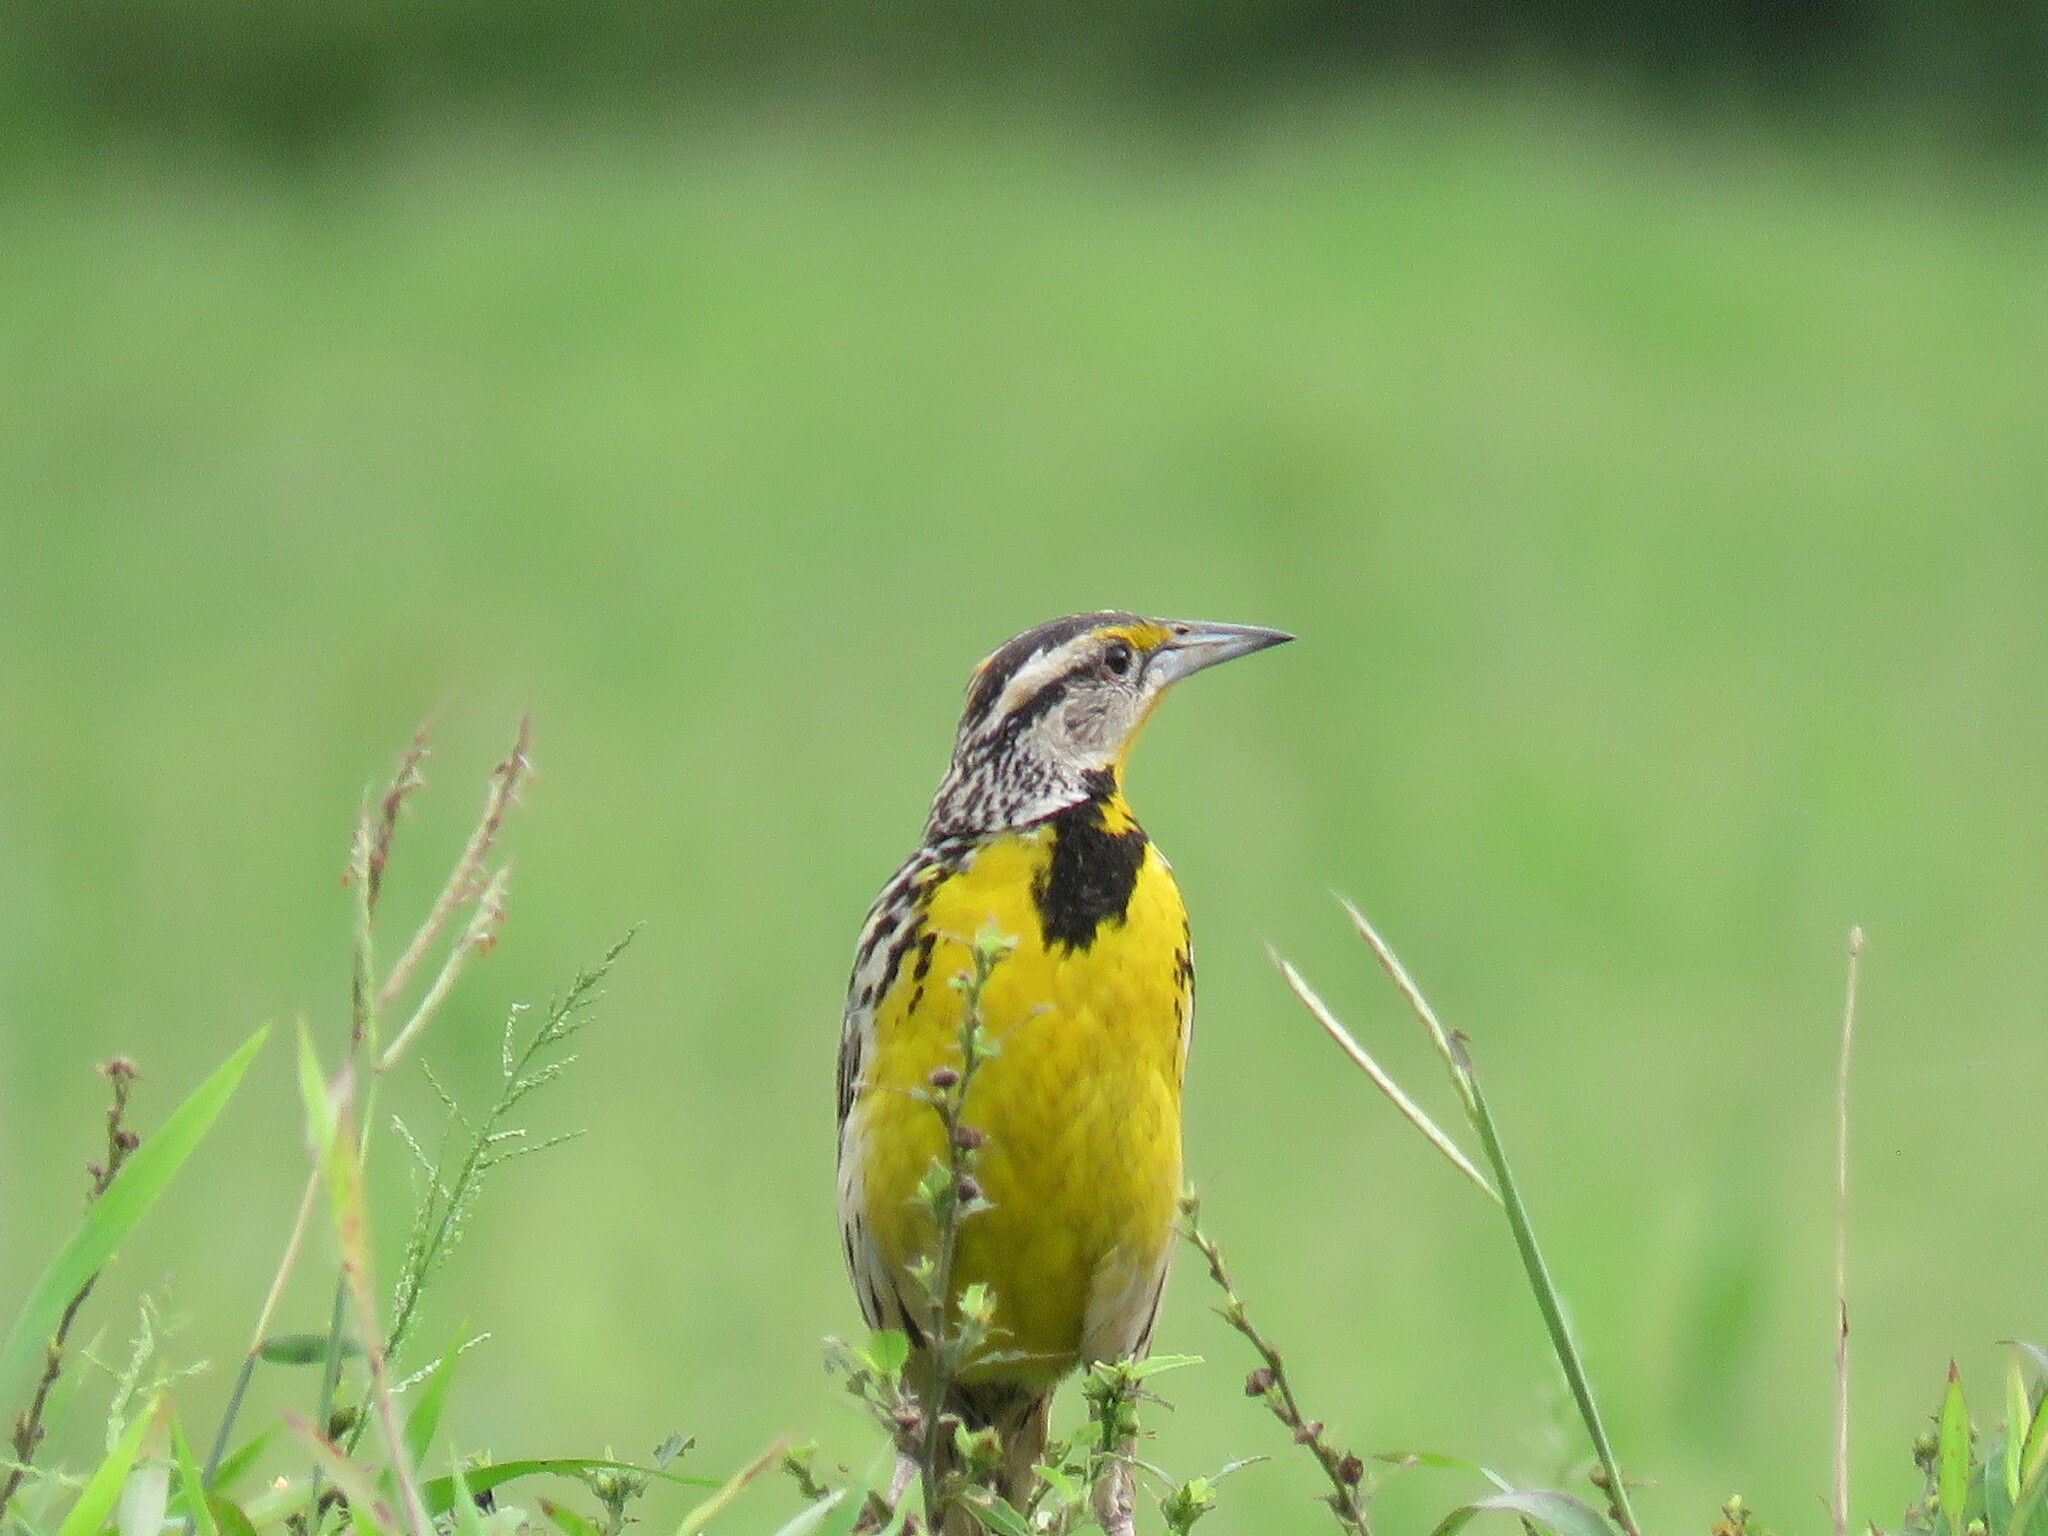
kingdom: Animalia
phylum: Chordata
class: Aves
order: Passeriformes
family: Icteridae
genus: Sturnella
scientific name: Sturnella magna
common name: Eastern meadowlark
